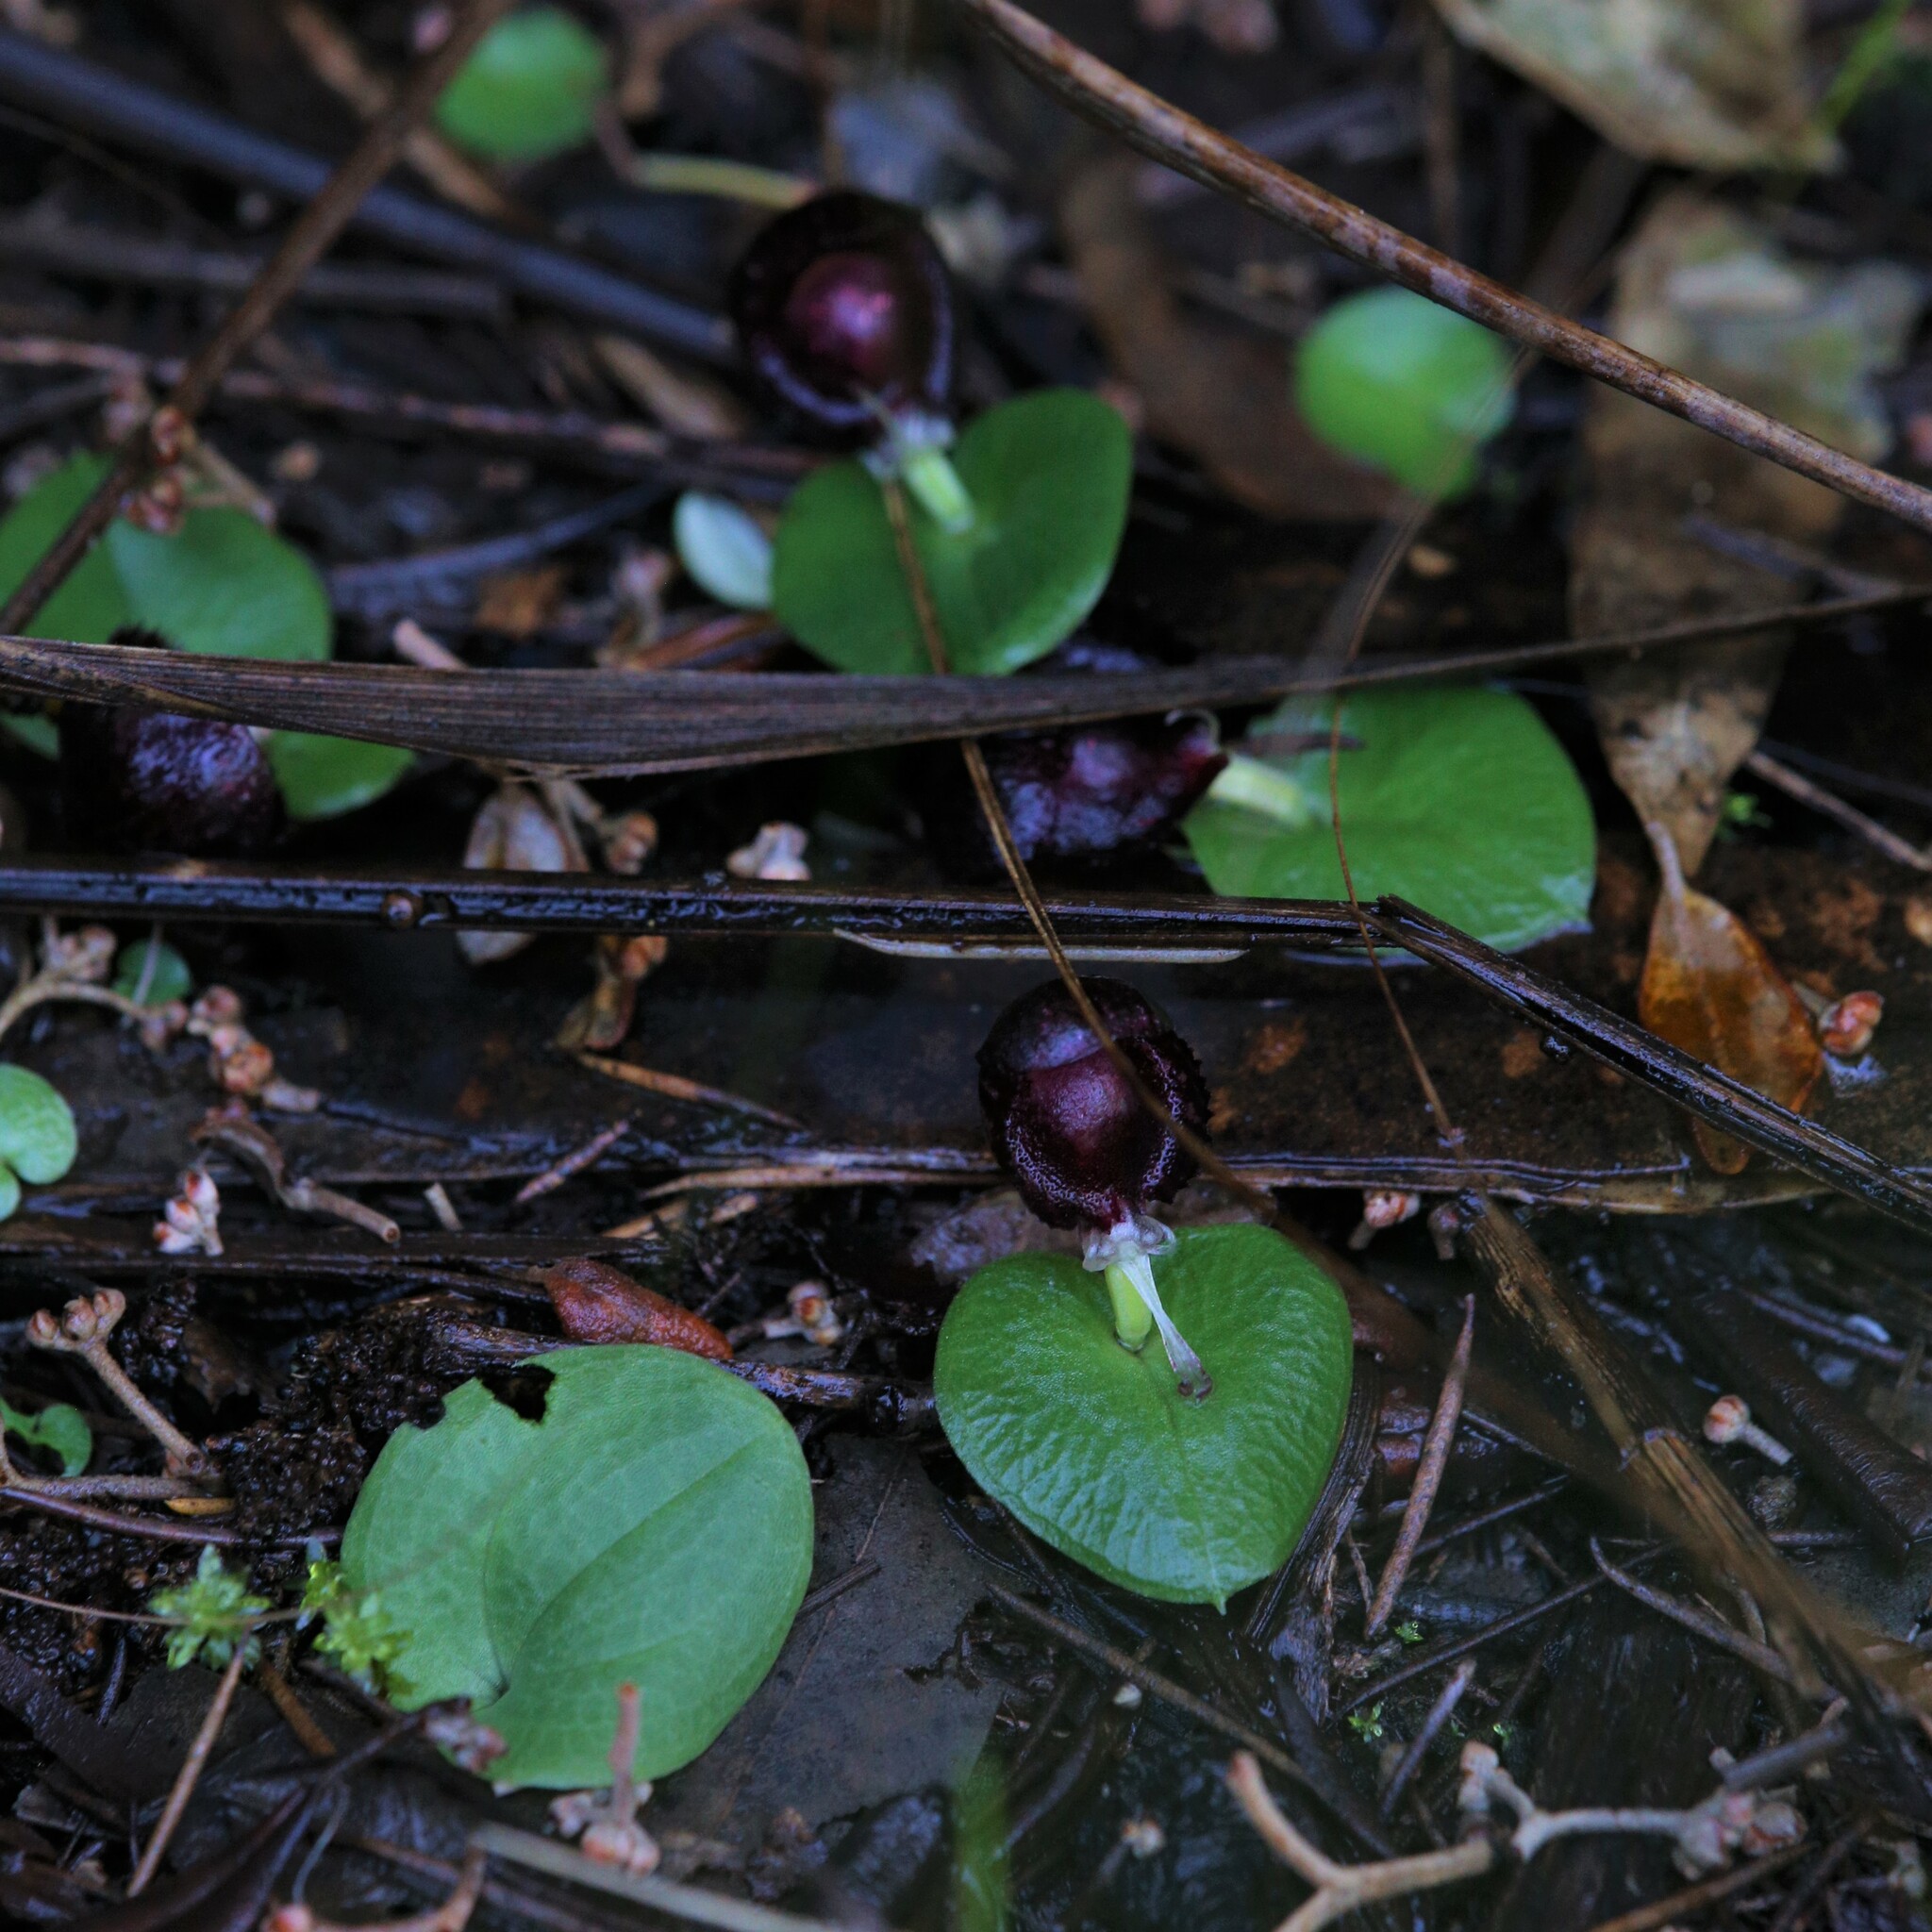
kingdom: Plantae
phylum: Tracheophyta
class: Liliopsida
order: Asparagales
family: Orchidaceae
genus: Corybas
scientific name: Corybas recurvus
